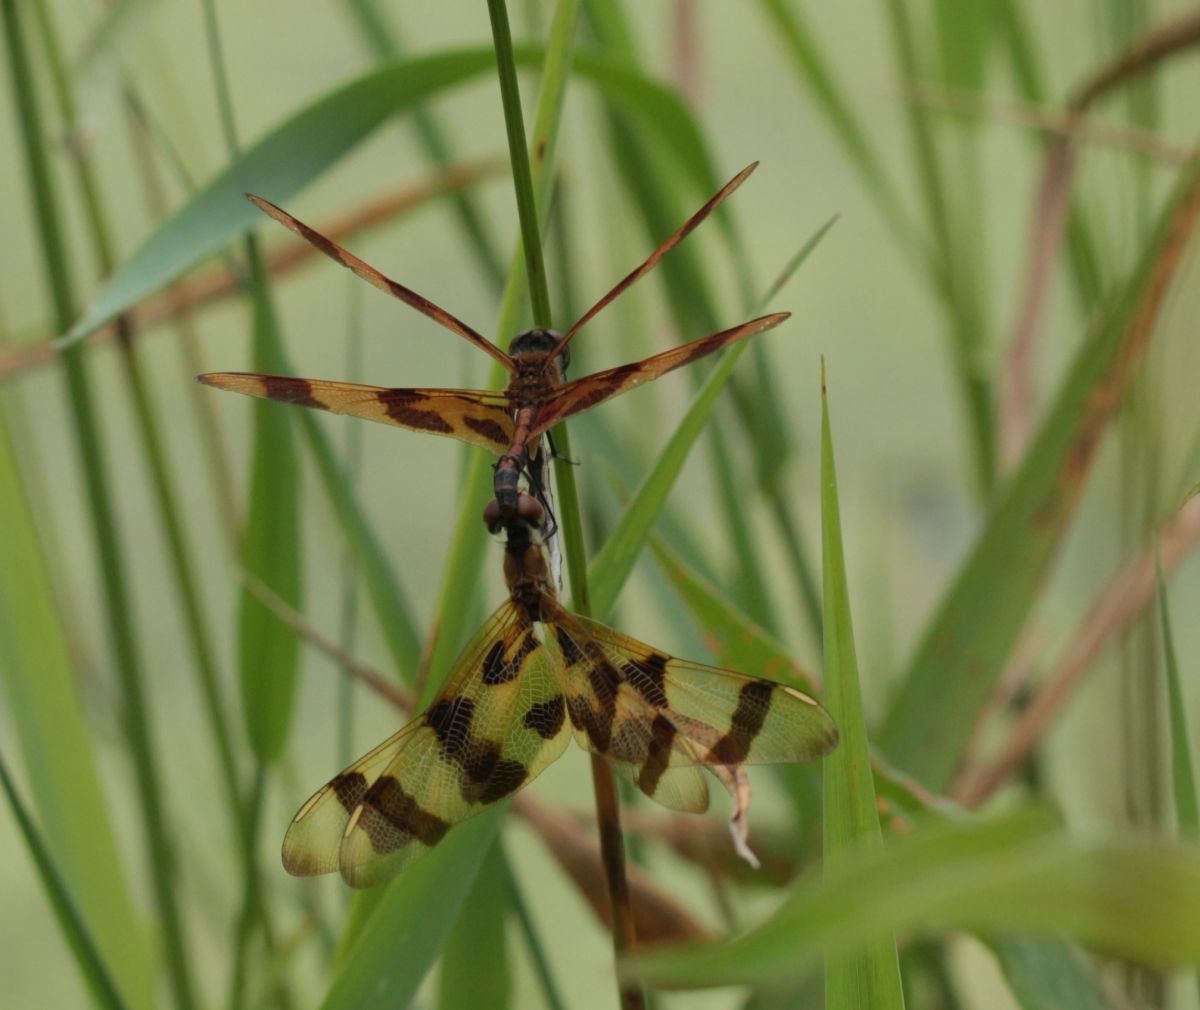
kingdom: Animalia
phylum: Arthropoda
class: Insecta
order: Odonata
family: Libellulidae
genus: Celithemis
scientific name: Celithemis eponina
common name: Halloween pennant
